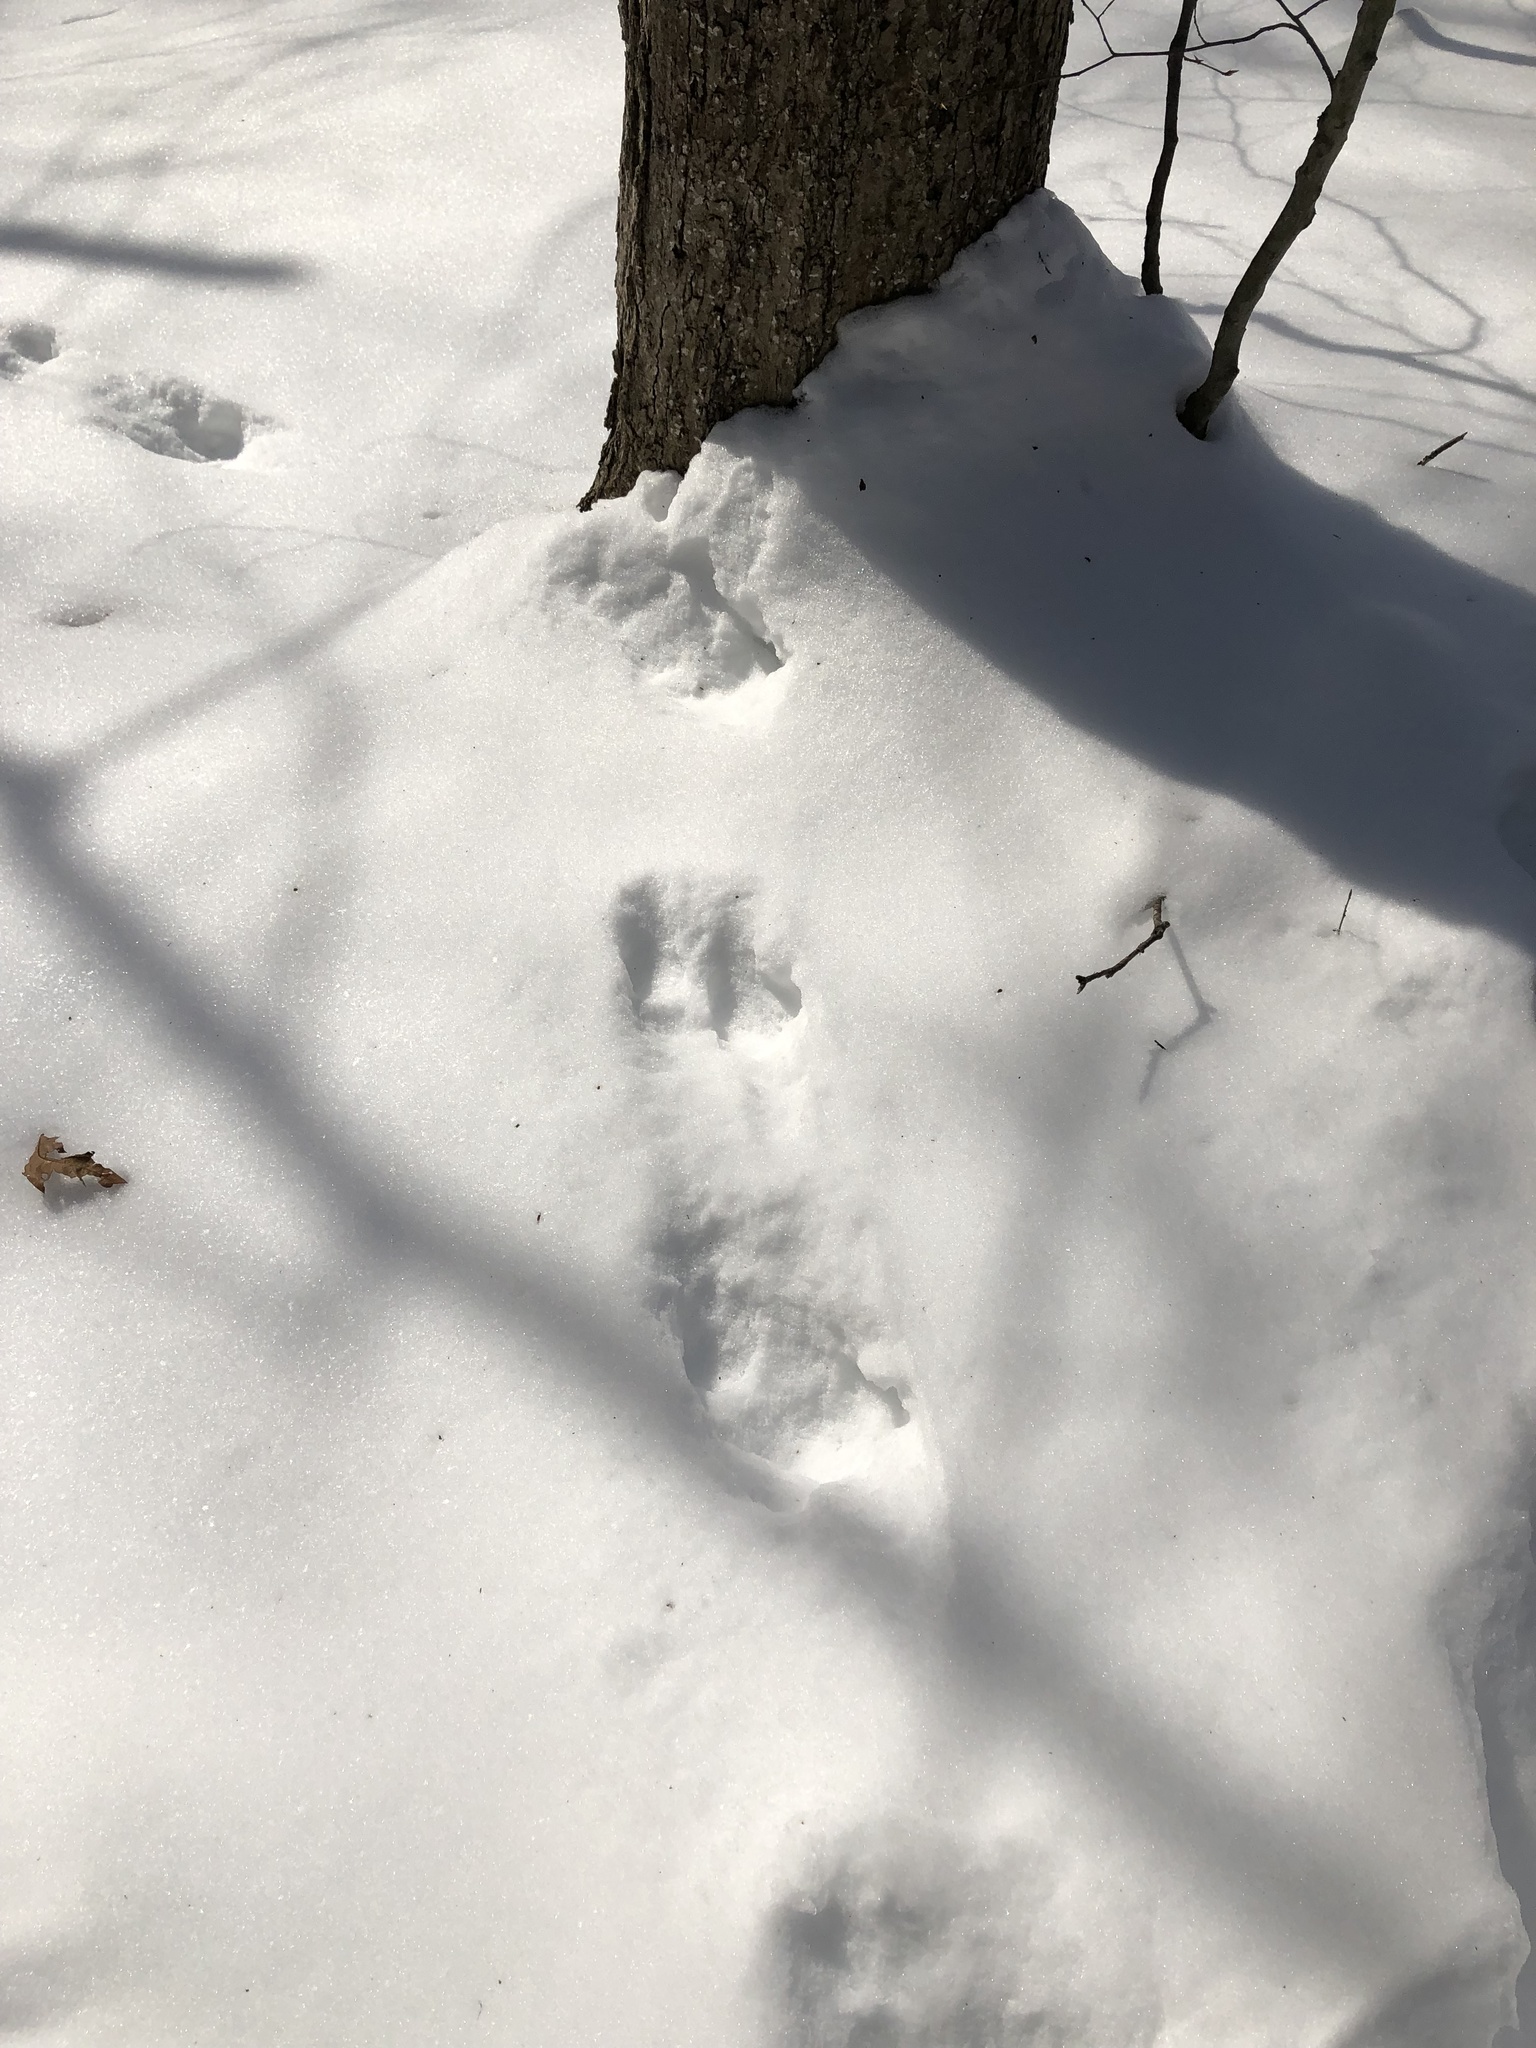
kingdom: Animalia
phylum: Chordata
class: Mammalia
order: Rodentia
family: Sciuridae
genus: Sciurus
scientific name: Sciurus carolinensis
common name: Eastern gray squirrel
